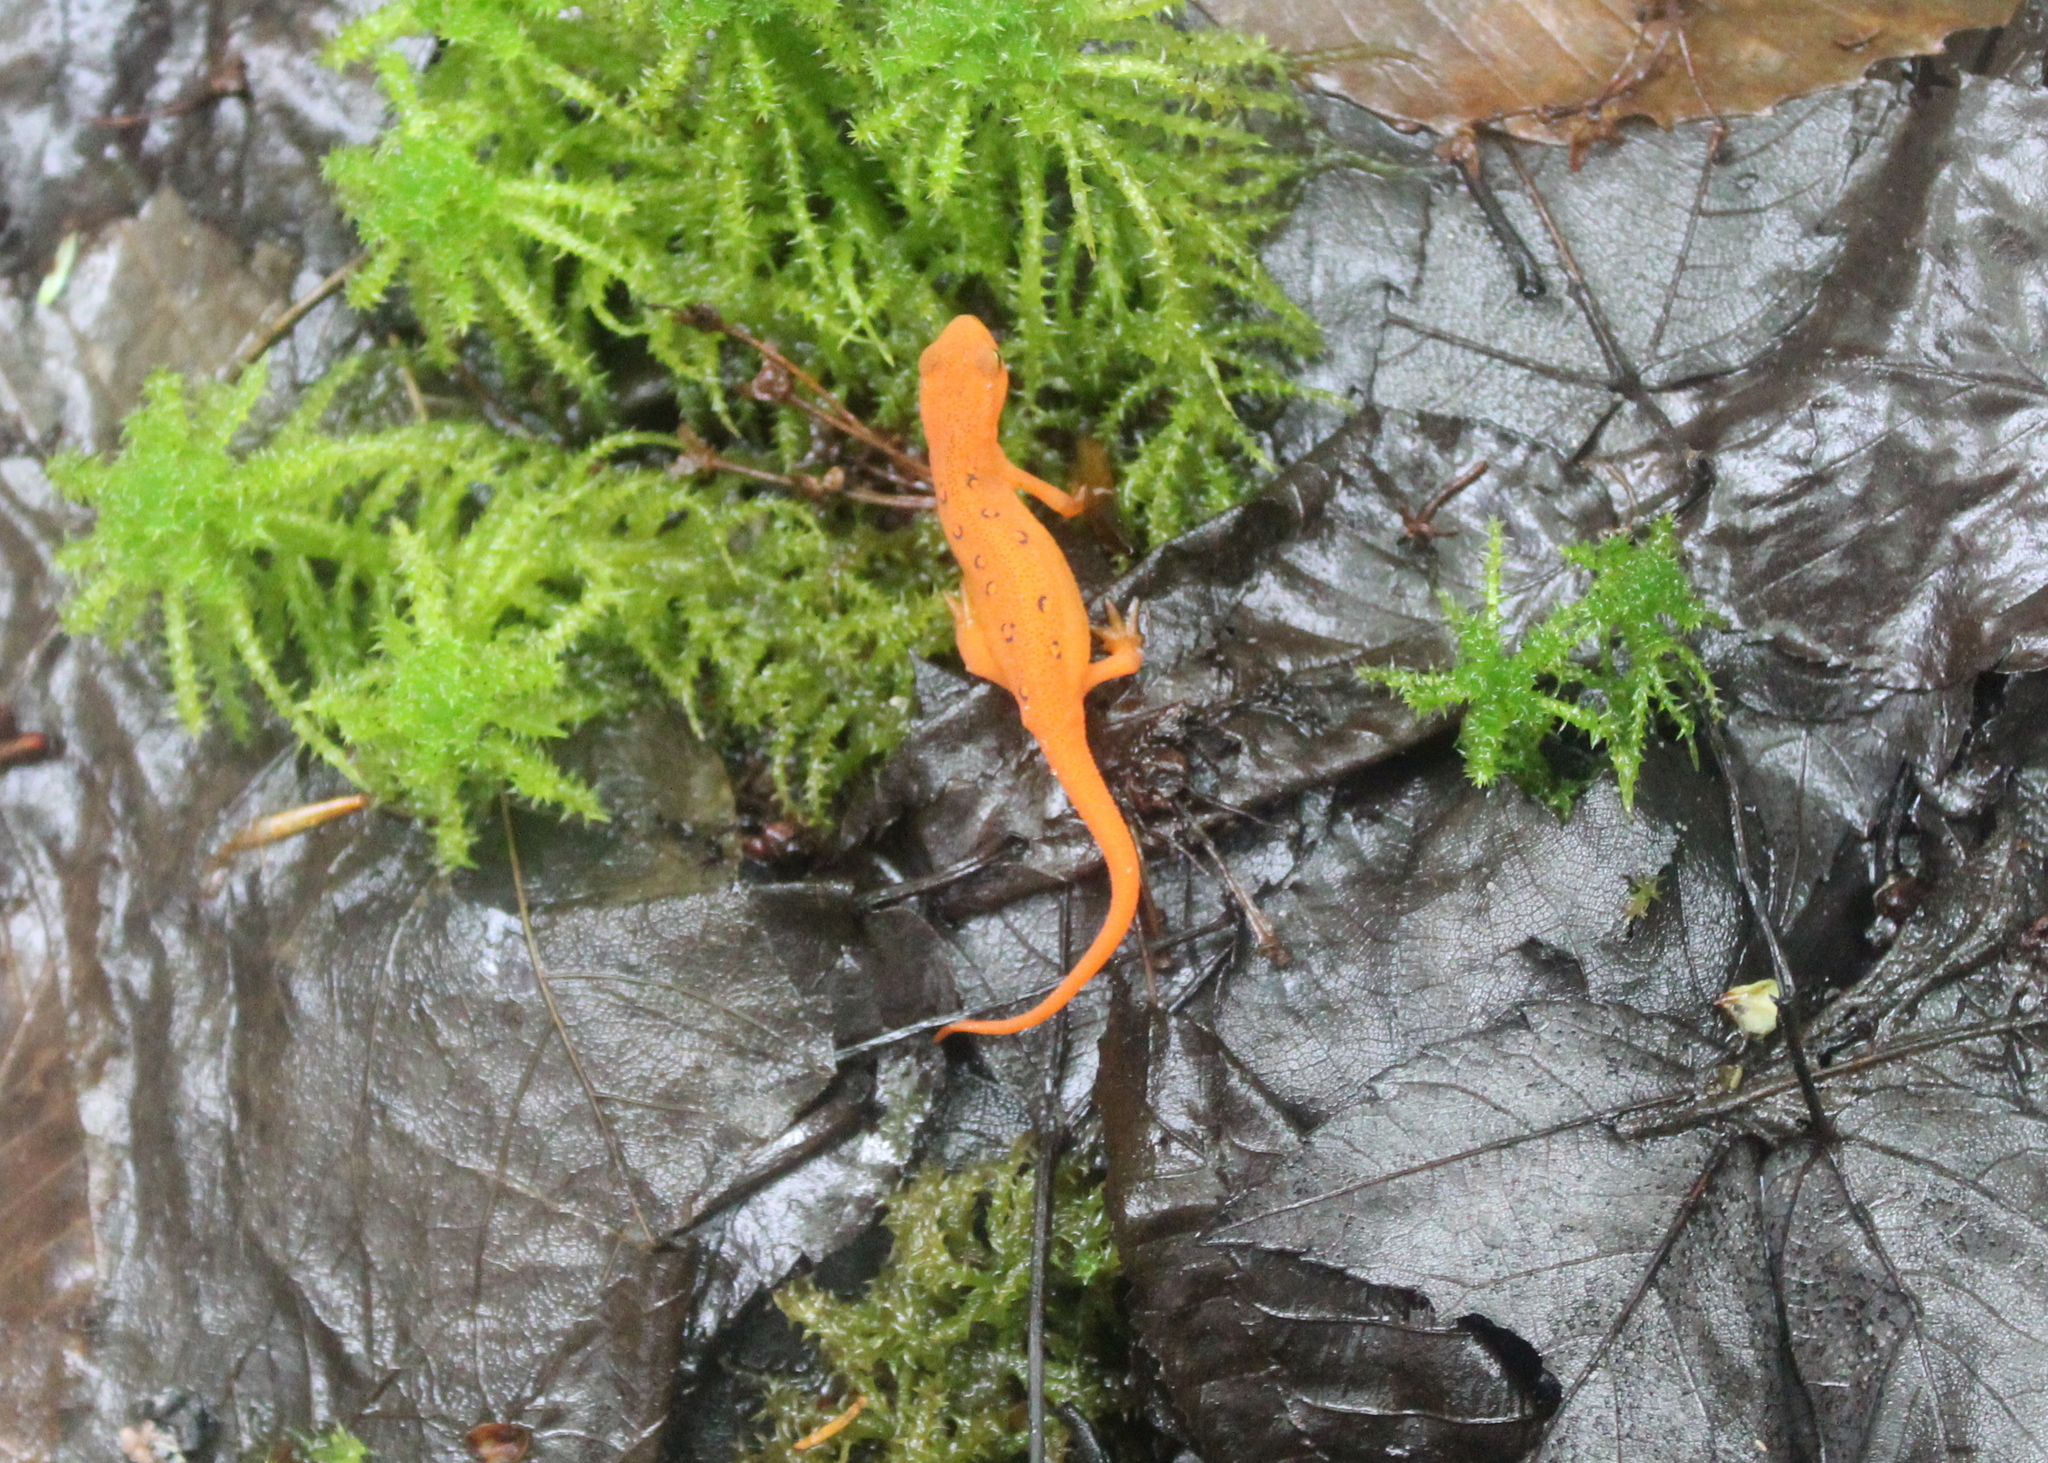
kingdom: Animalia
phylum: Chordata
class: Amphibia
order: Caudata
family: Salamandridae
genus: Notophthalmus
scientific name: Notophthalmus viridescens
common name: Eastern newt
